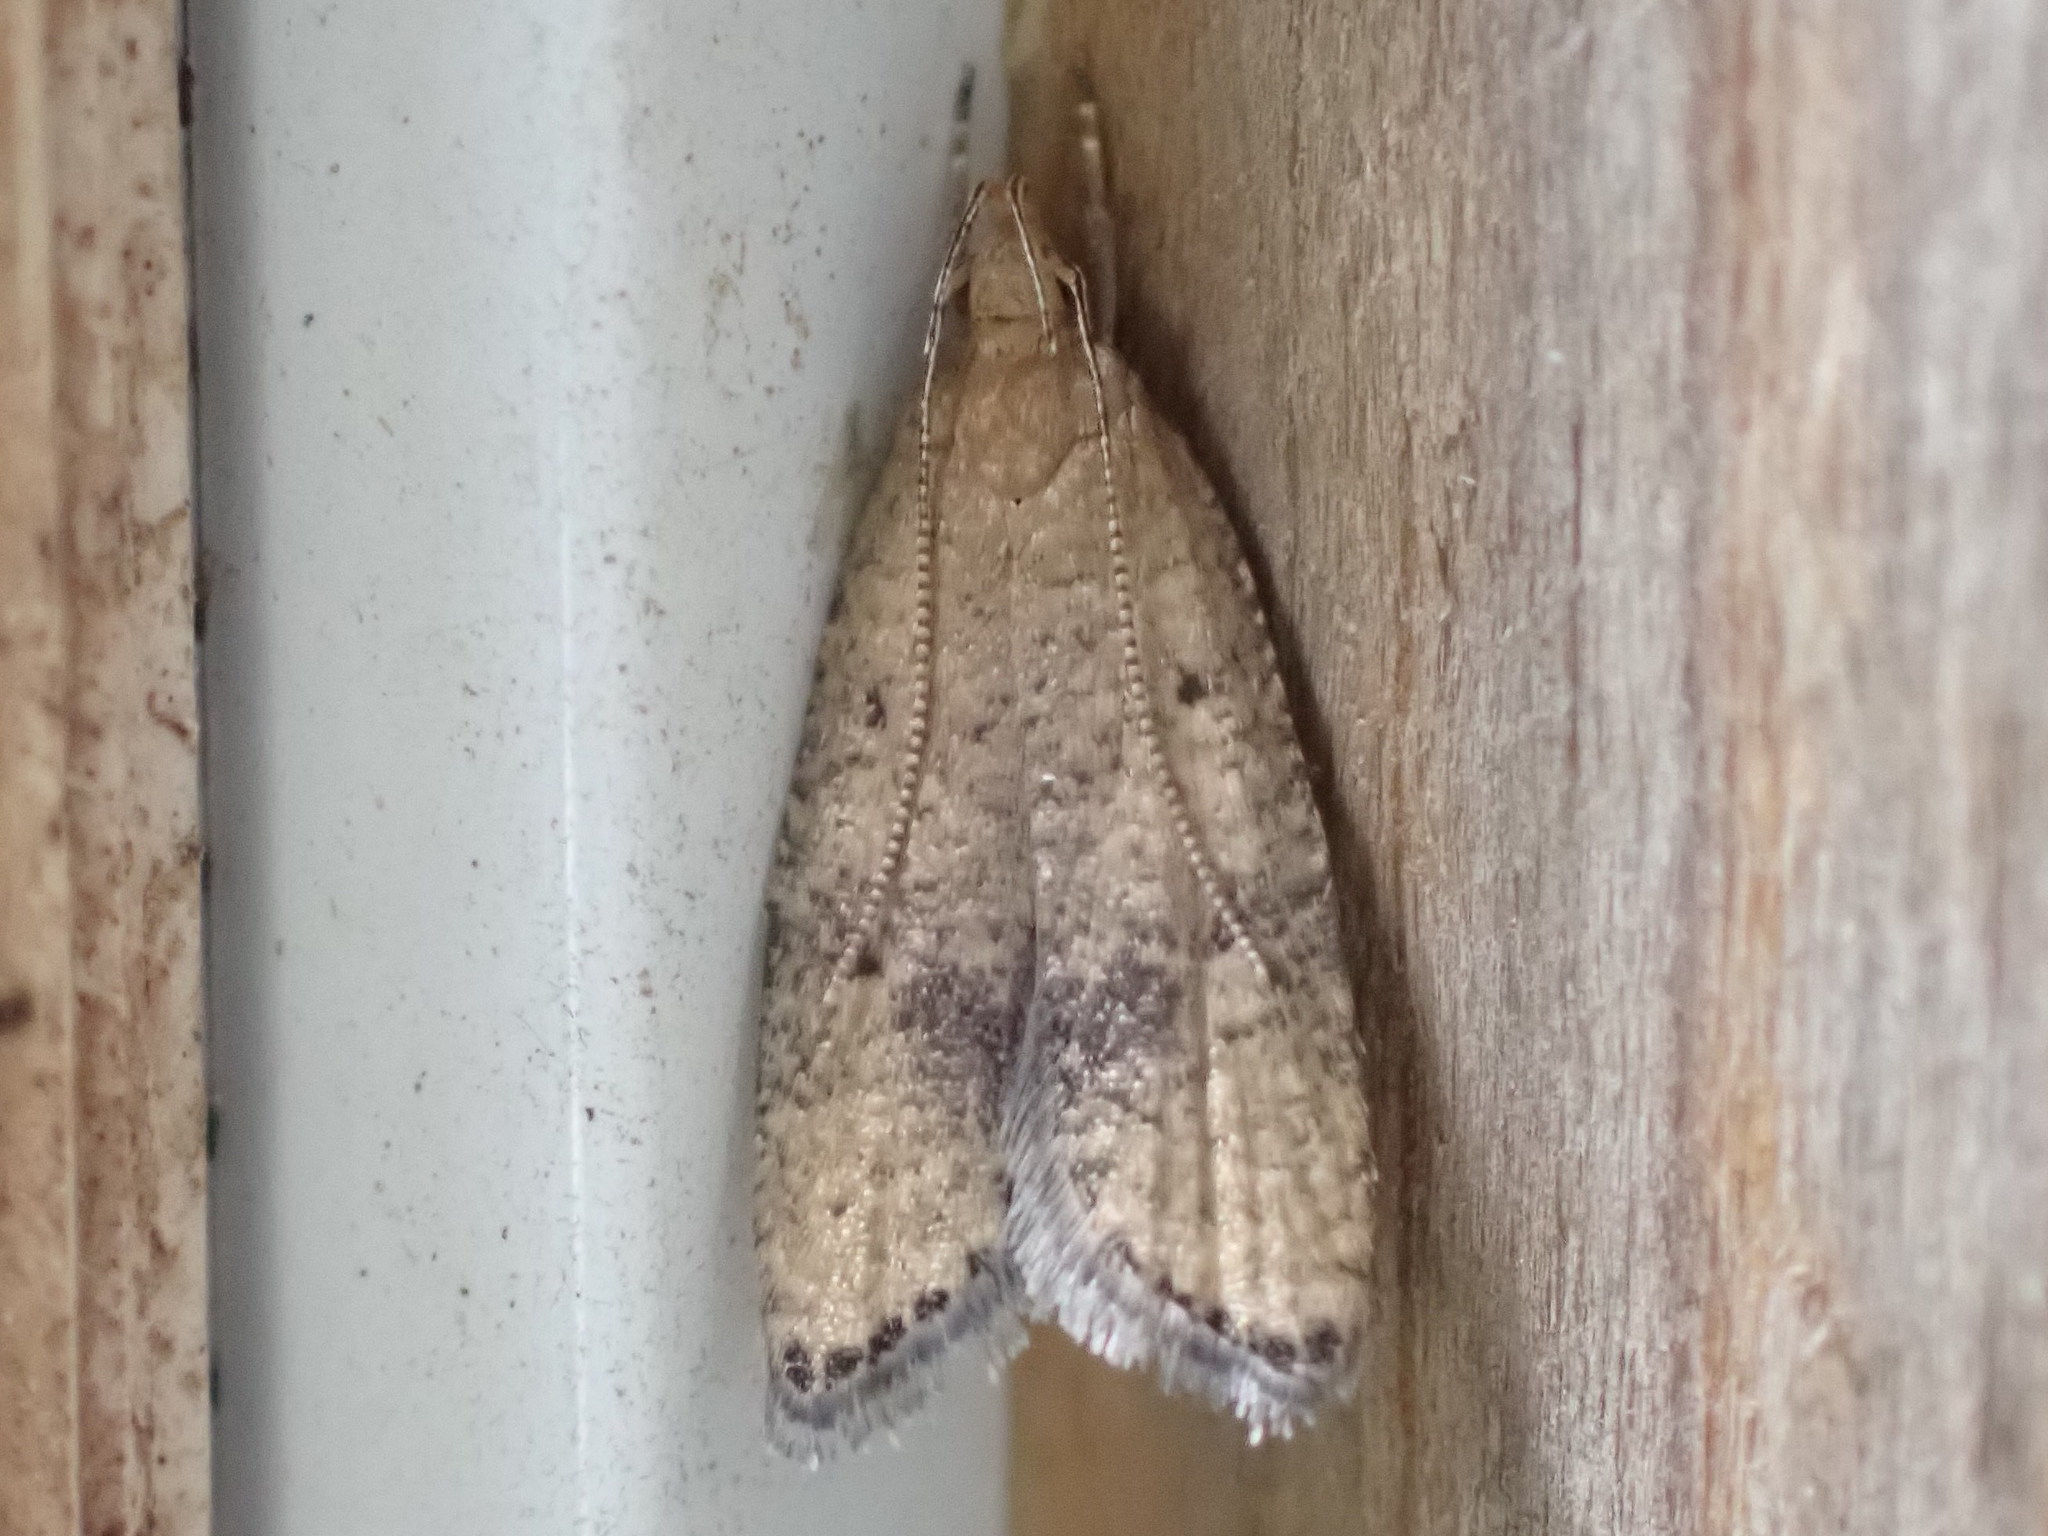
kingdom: Animalia
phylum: Arthropoda
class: Insecta
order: Lepidoptera
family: Depressariidae
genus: Psilocorsis
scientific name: Psilocorsis quercicella
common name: Oak leaftier moth
